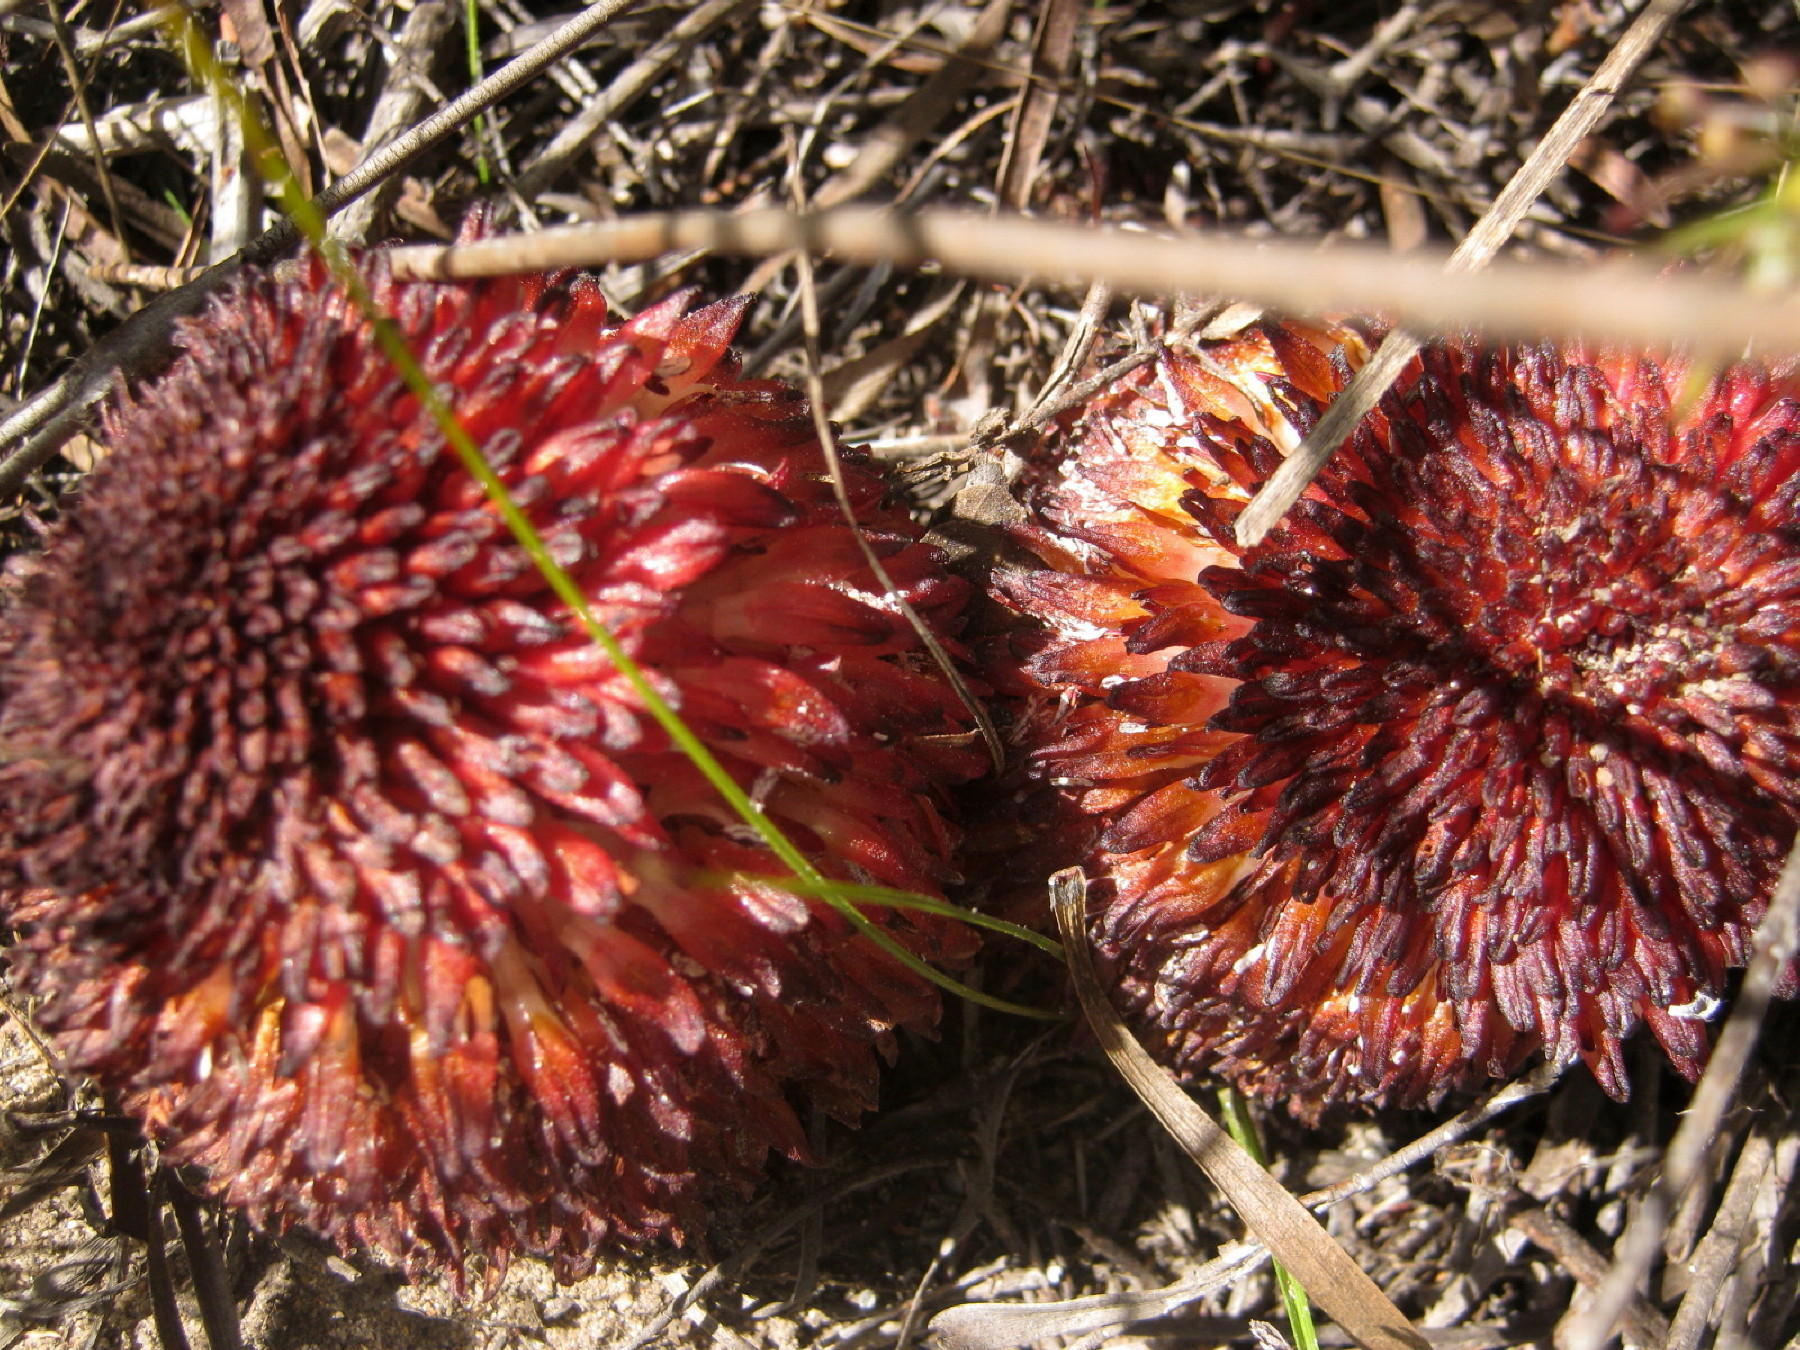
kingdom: Plantae
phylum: Tracheophyta
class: Magnoliopsida
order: Santalales
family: Mystropetalaceae
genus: Mystropetalon
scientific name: Mystropetalon thomii
